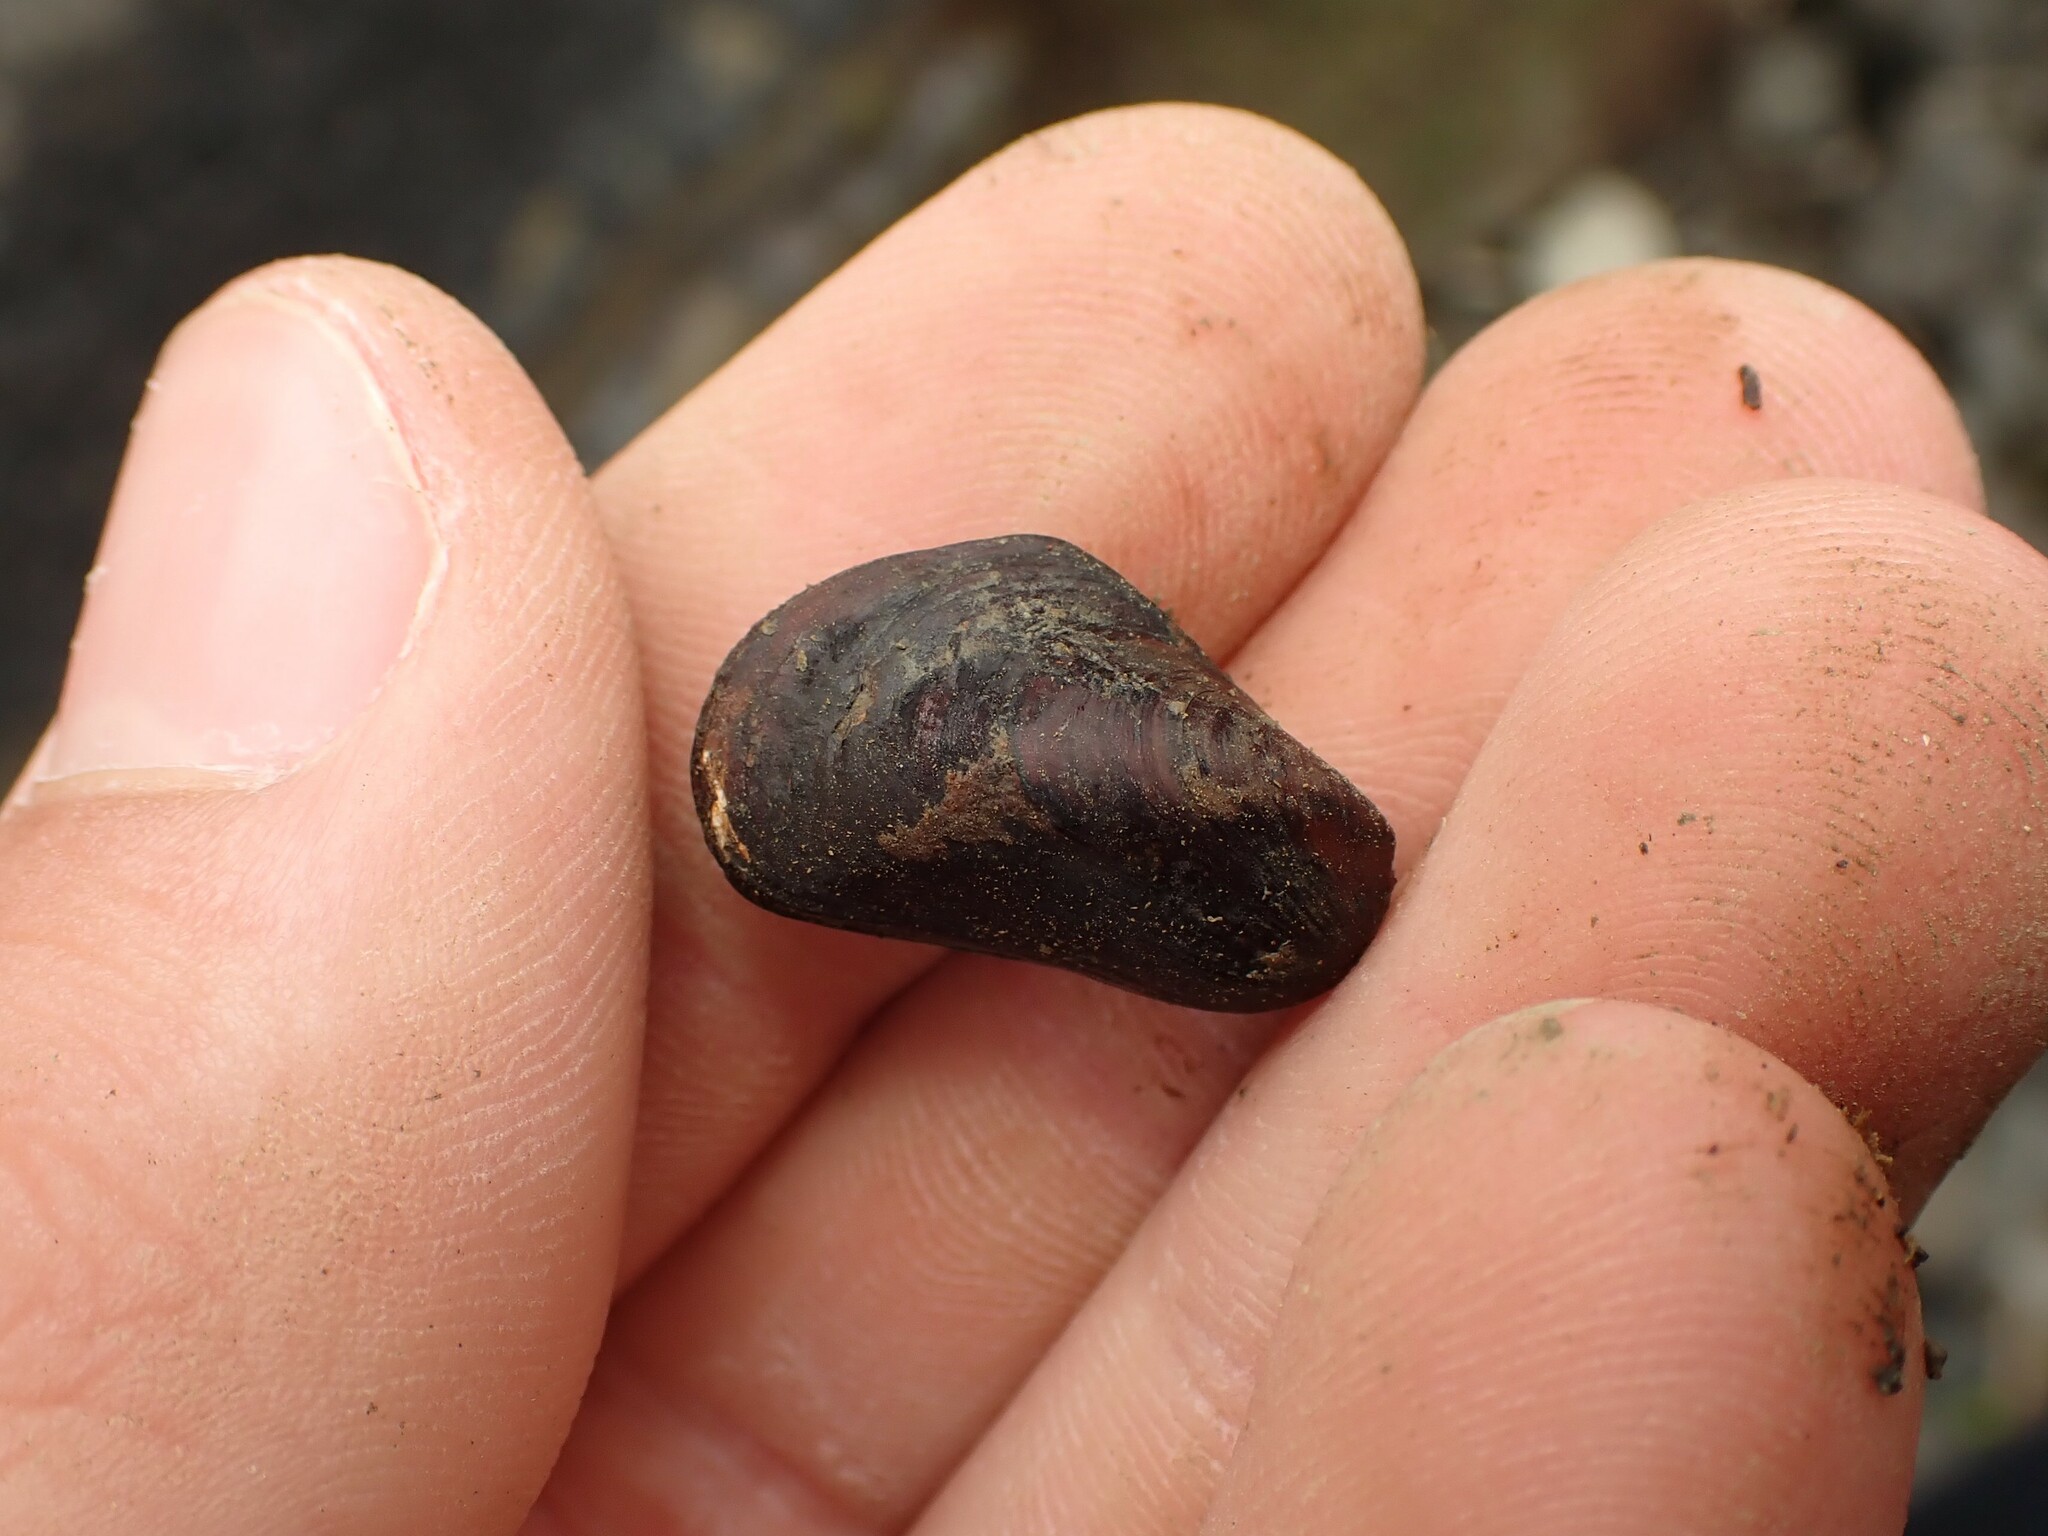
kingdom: Animalia
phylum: Mollusca
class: Bivalvia
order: Mytilida
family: Mytilidae
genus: Xenostrobus
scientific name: Xenostrobus securis
